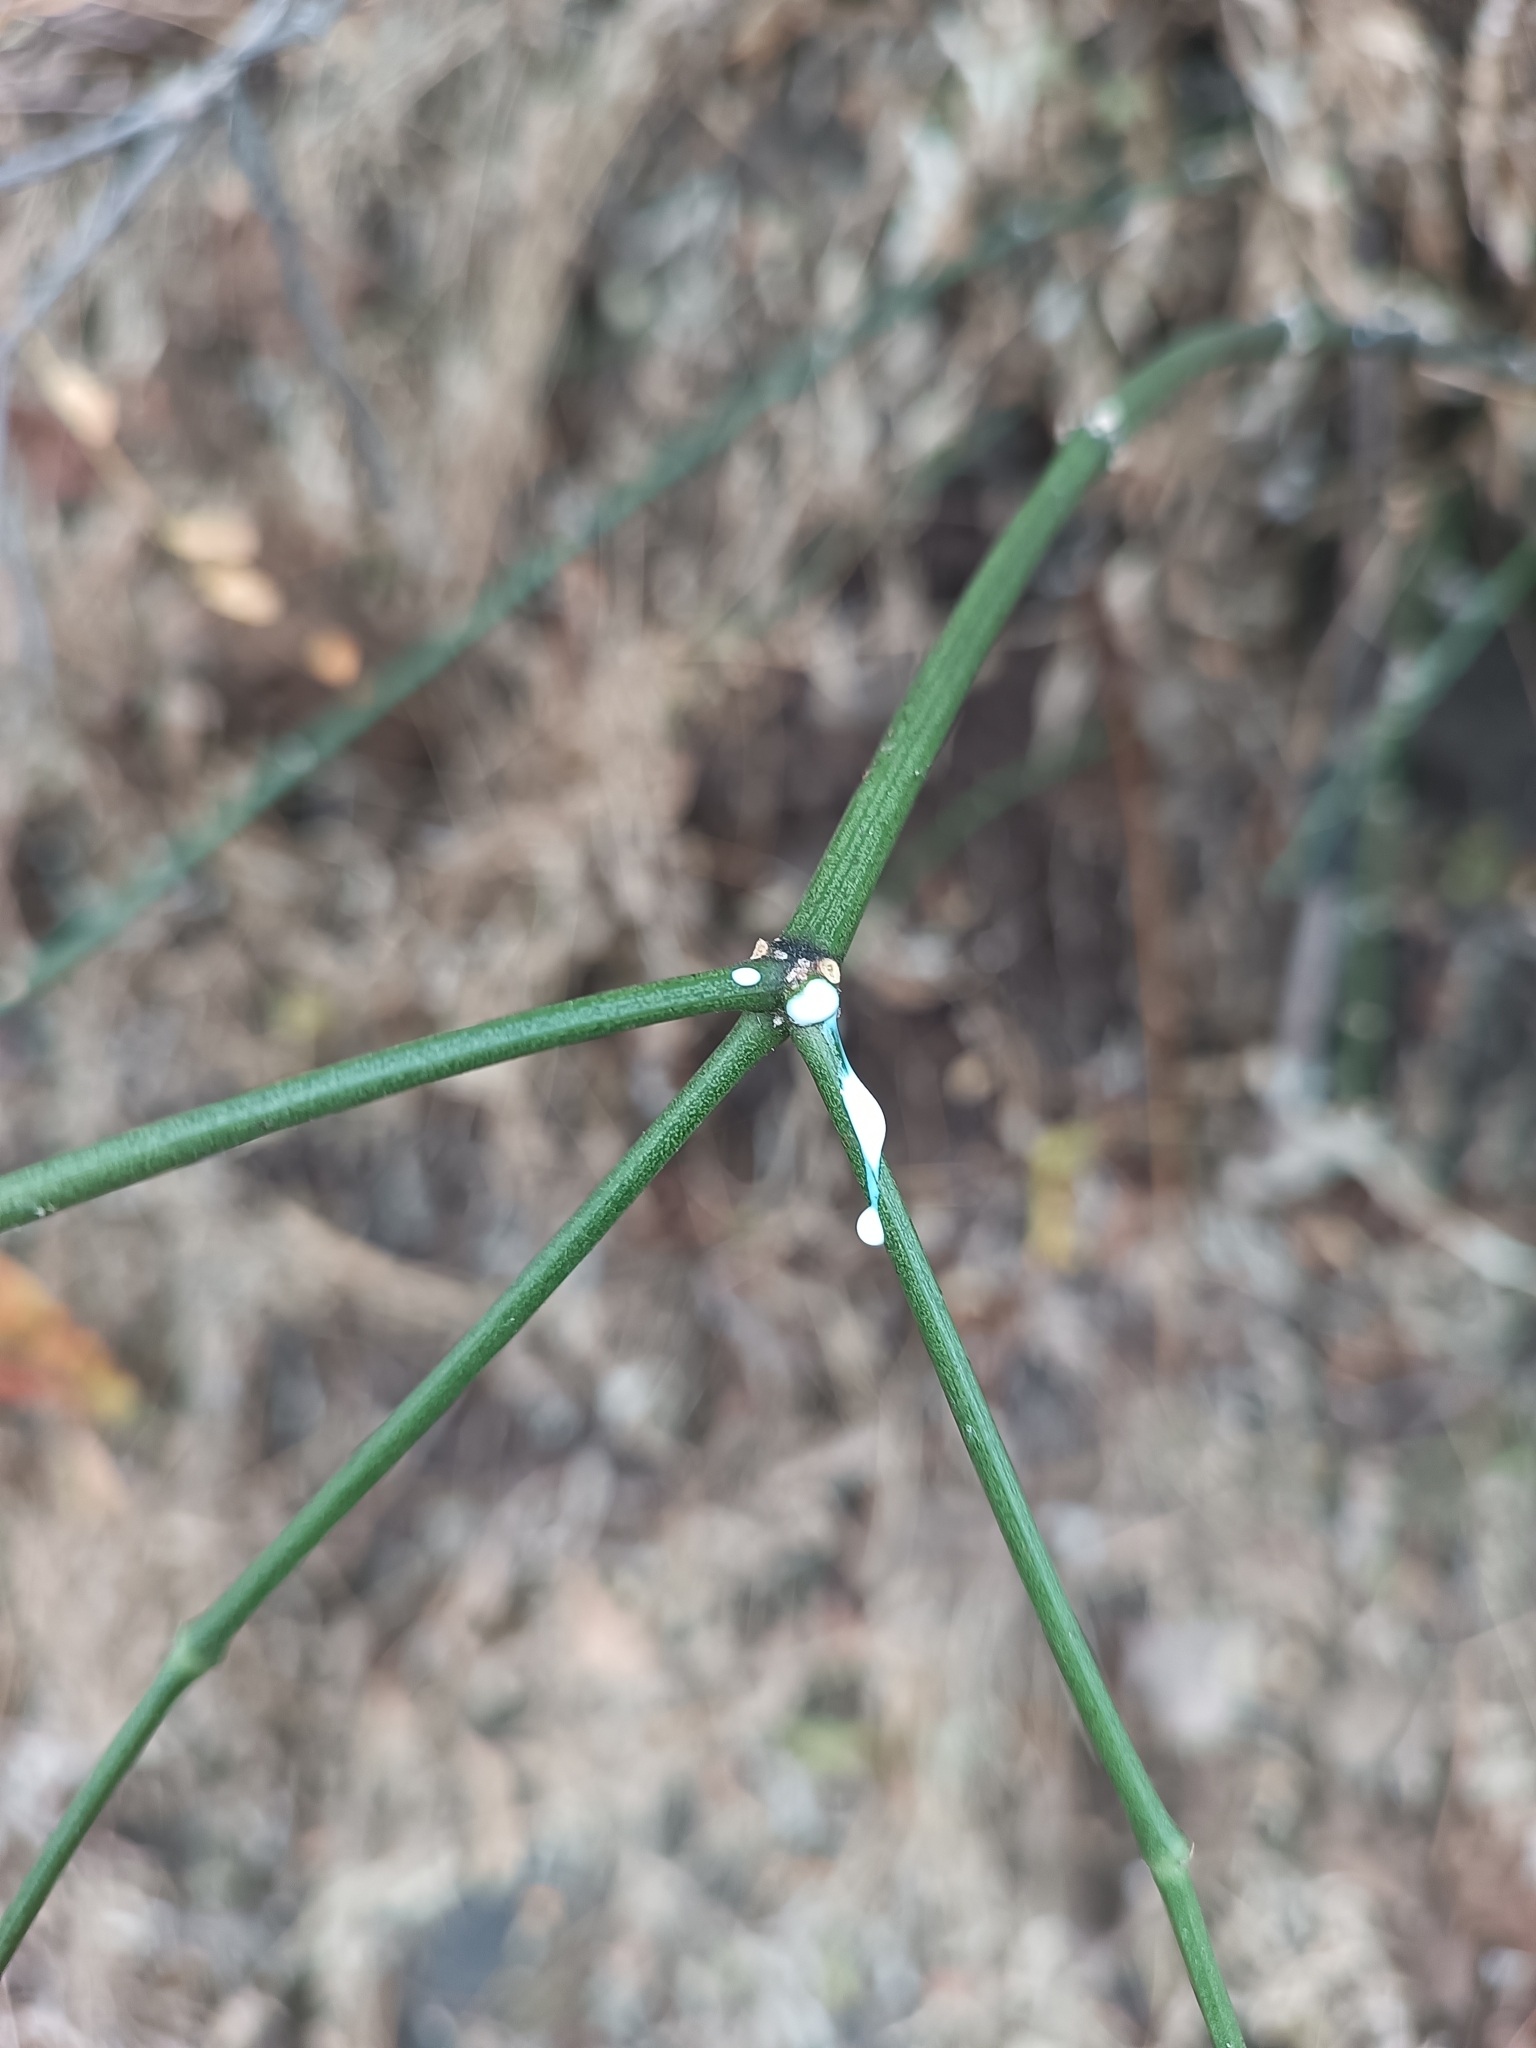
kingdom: Plantae
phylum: Tracheophyta
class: Magnoliopsida
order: Malpighiales
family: Euphorbiaceae
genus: Euphorbia
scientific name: Euphorbia cymosa
